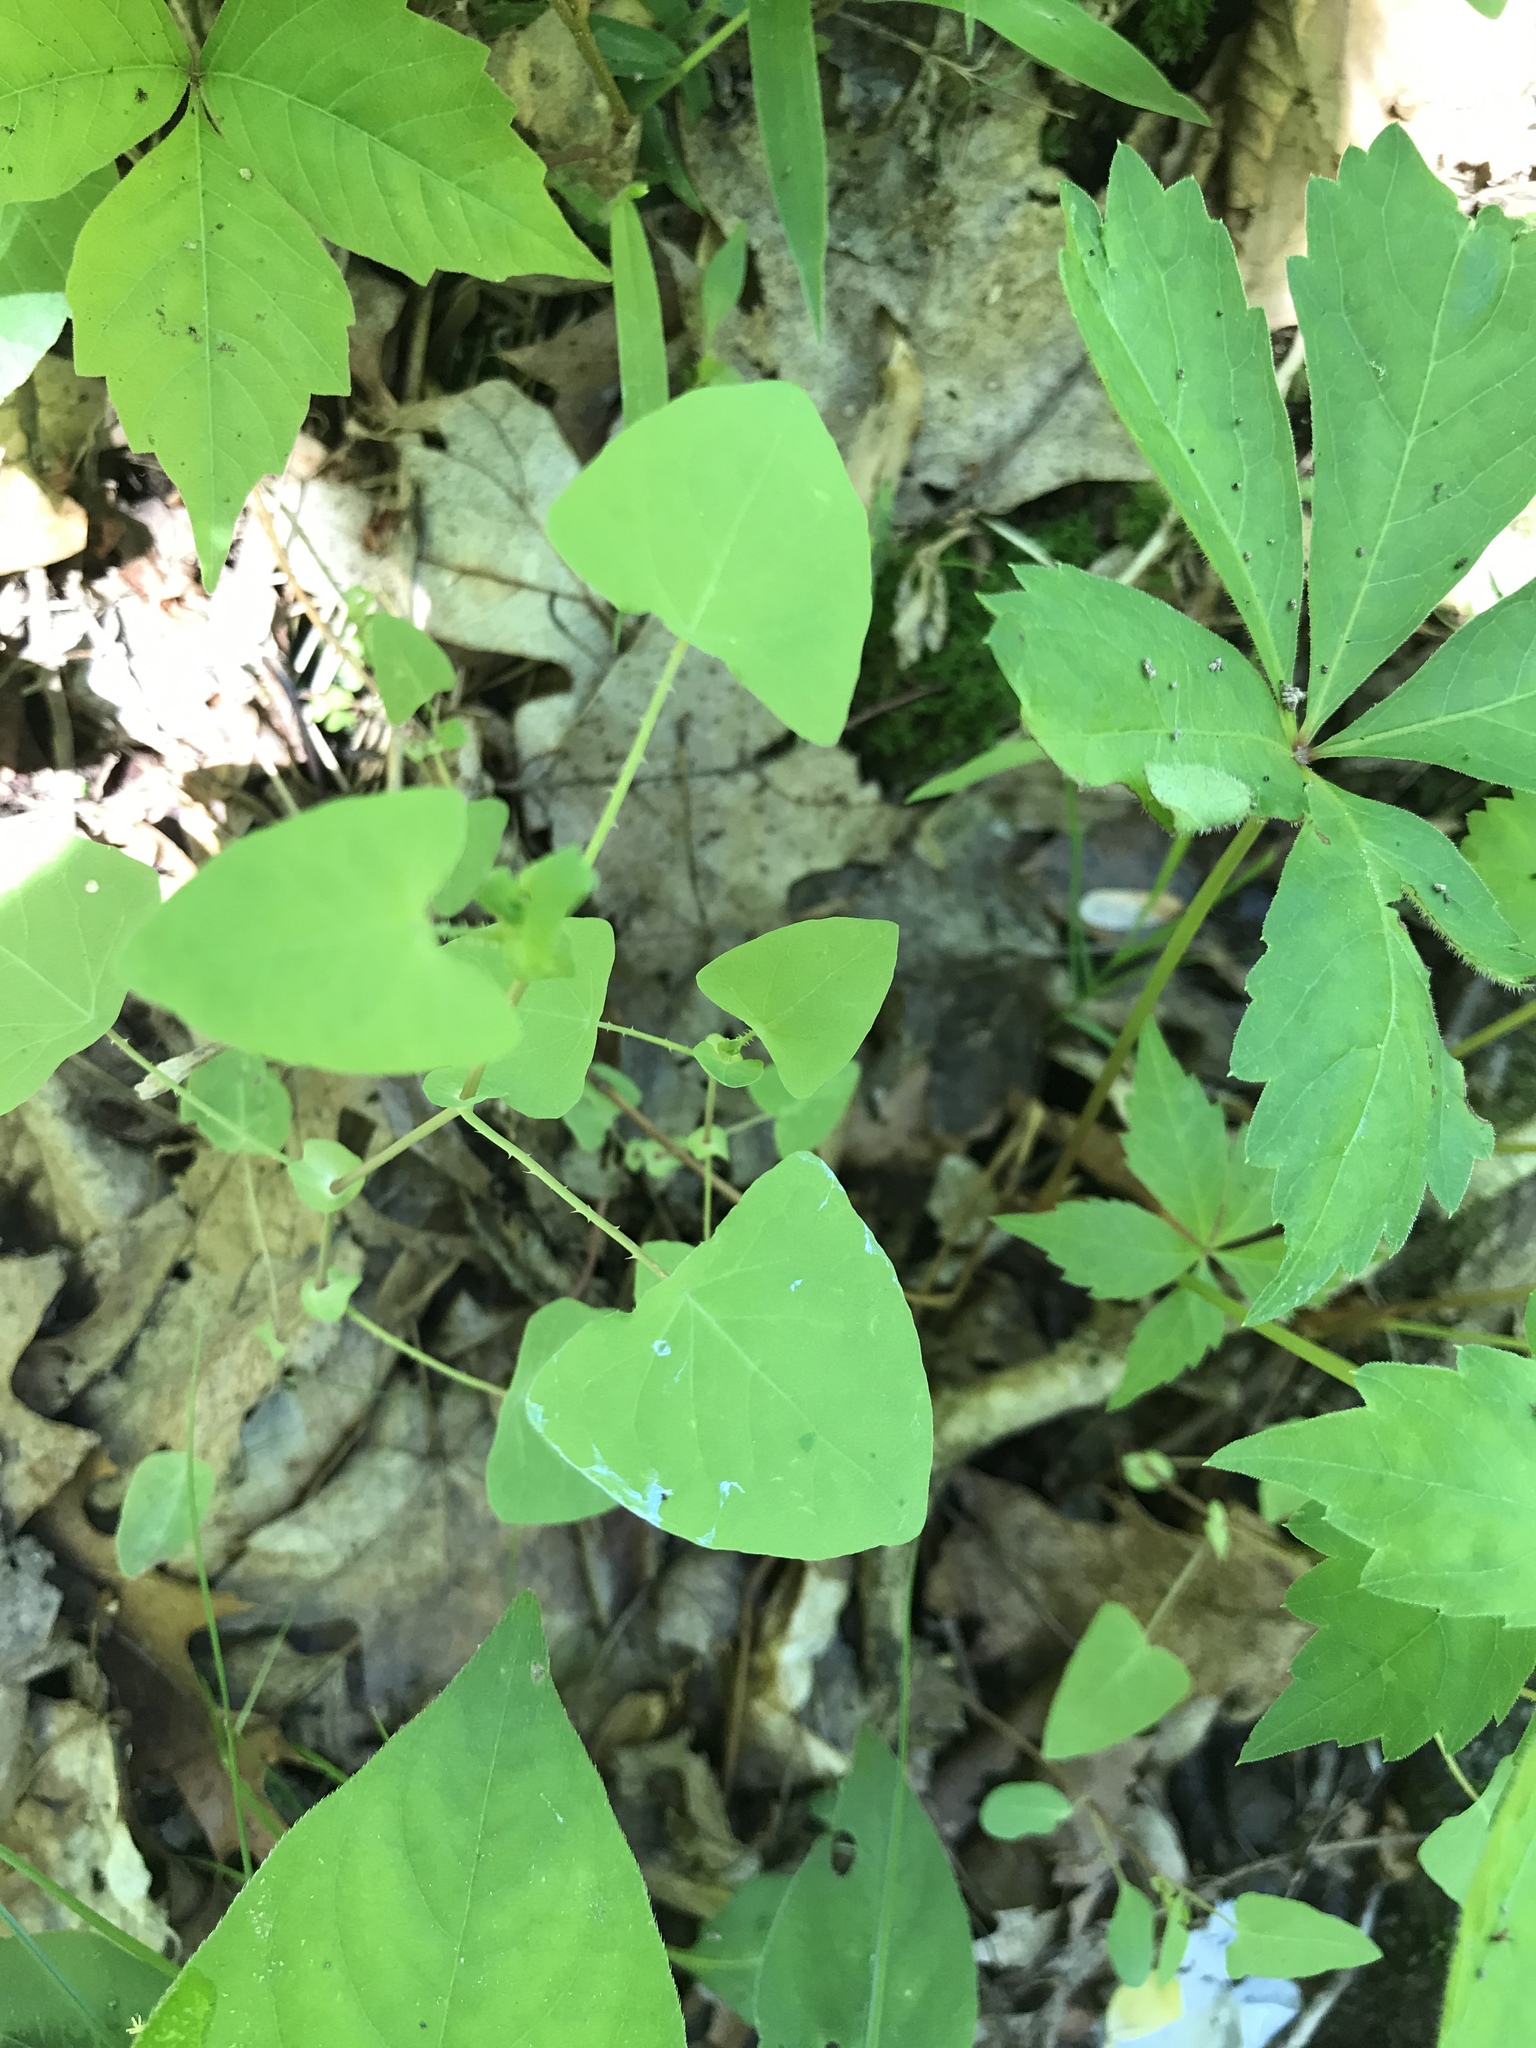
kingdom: Plantae
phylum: Tracheophyta
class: Magnoliopsida
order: Caryophyllales
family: Polygonaceae
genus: Persicaria
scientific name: Persicaria perfoliata
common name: Asiatic tearthumb
